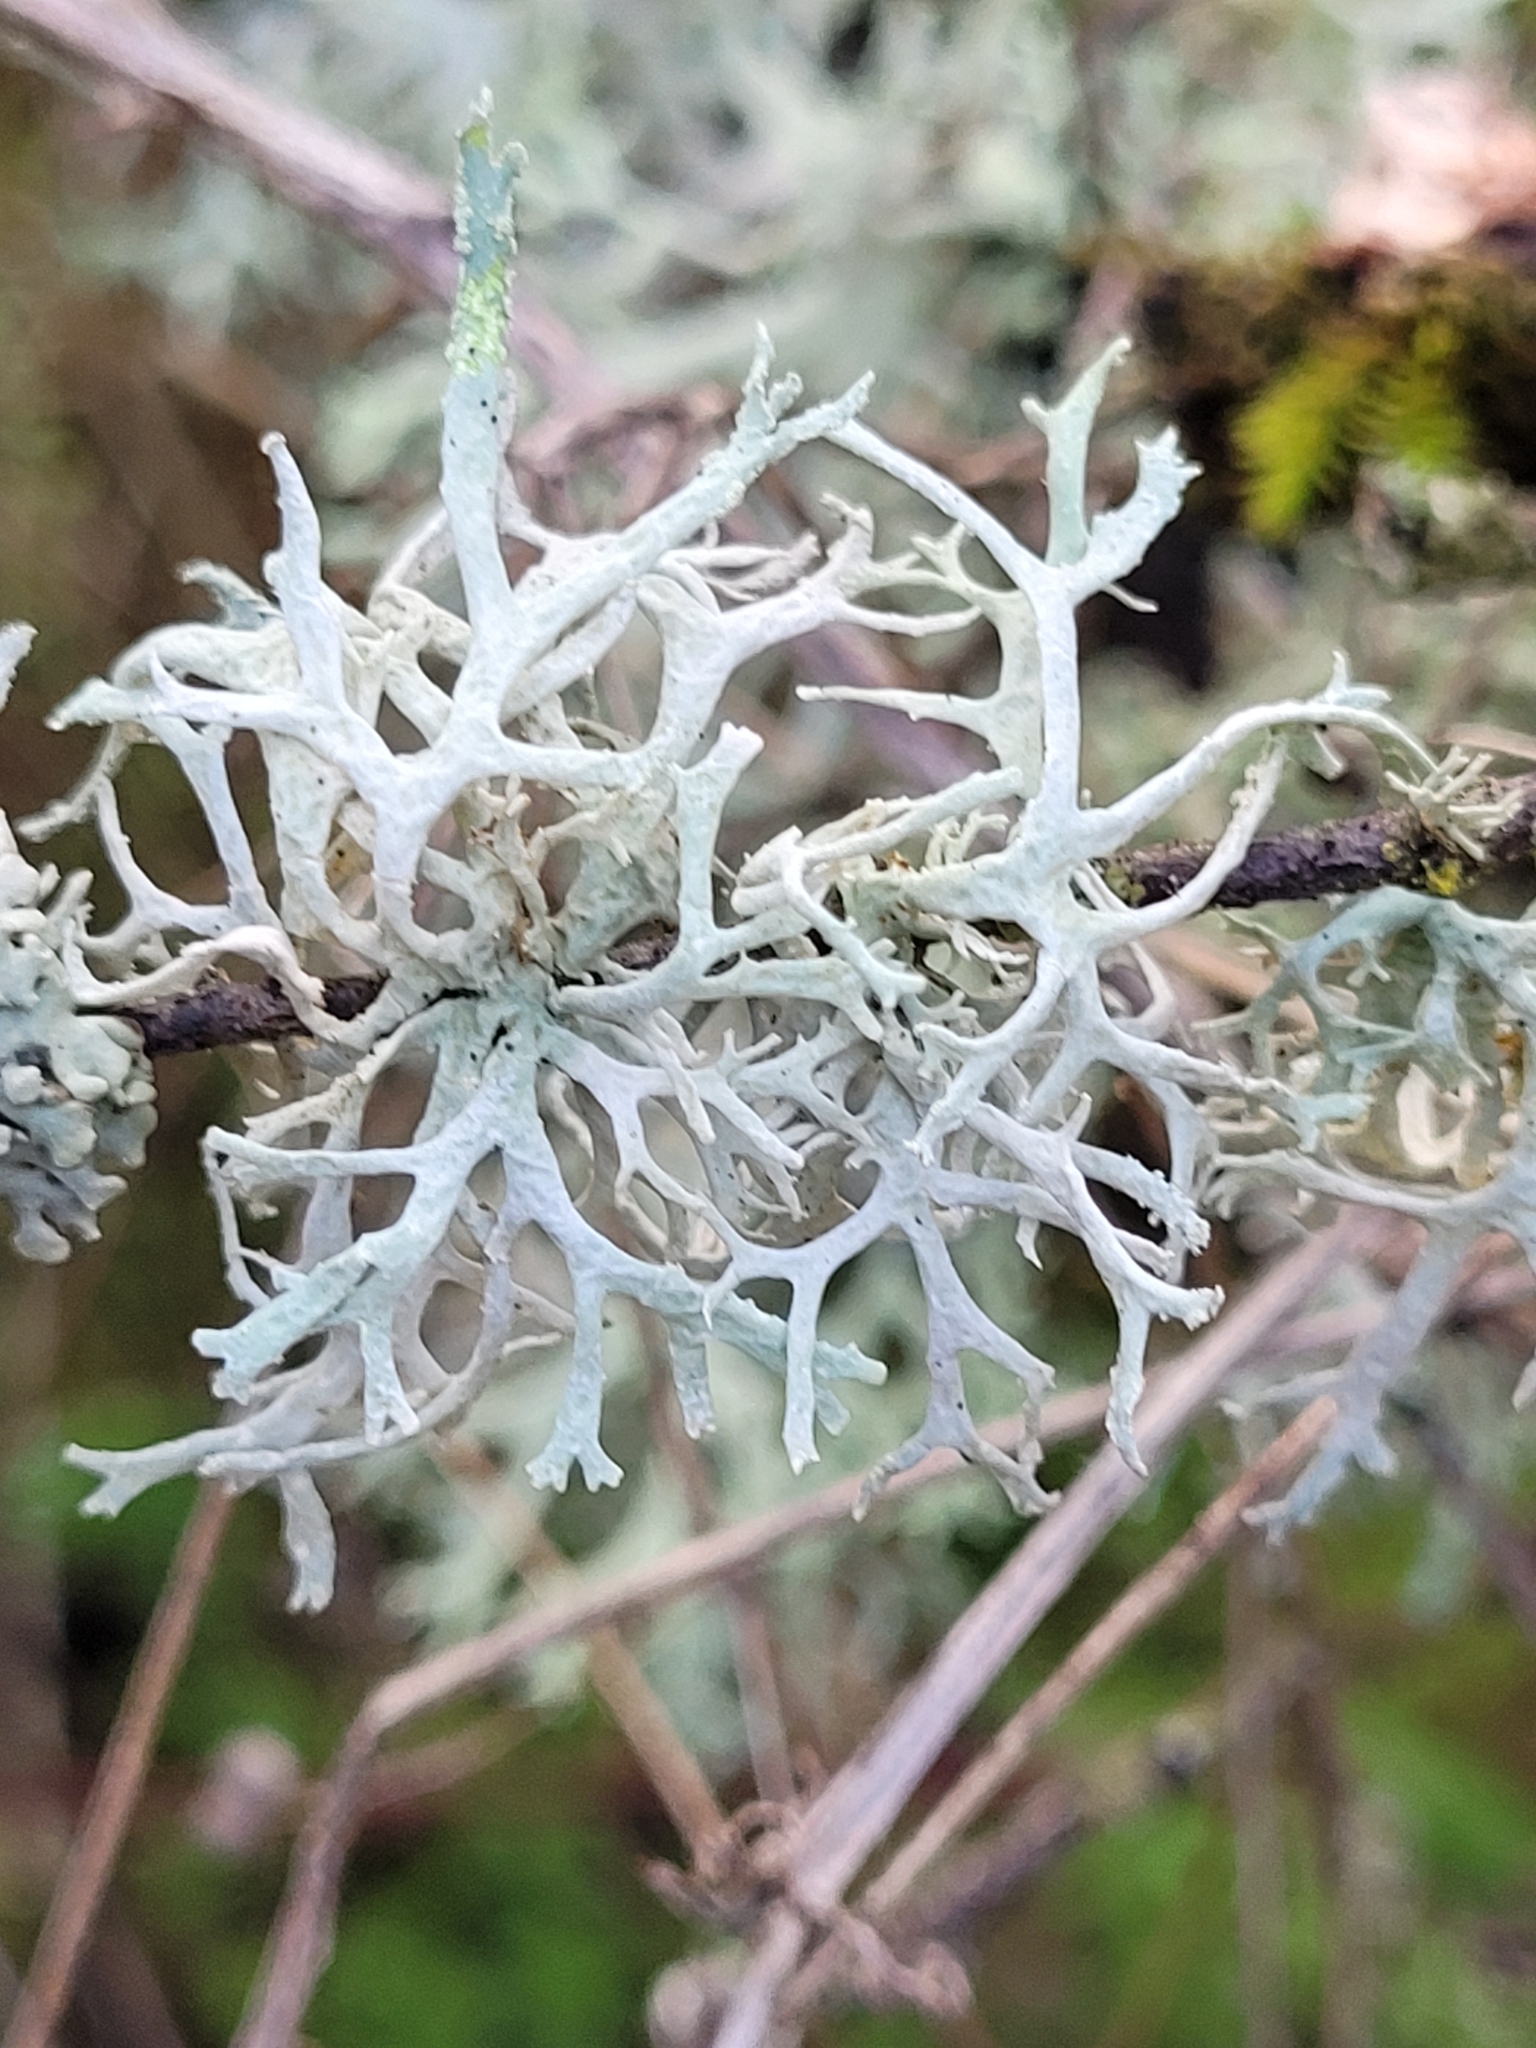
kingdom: Fungi
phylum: Ascomycota
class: Lecanoromycetes
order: Lecanorales
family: Parmeliaceae
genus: Evernia
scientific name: Evernia prunastri
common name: Oak moss
